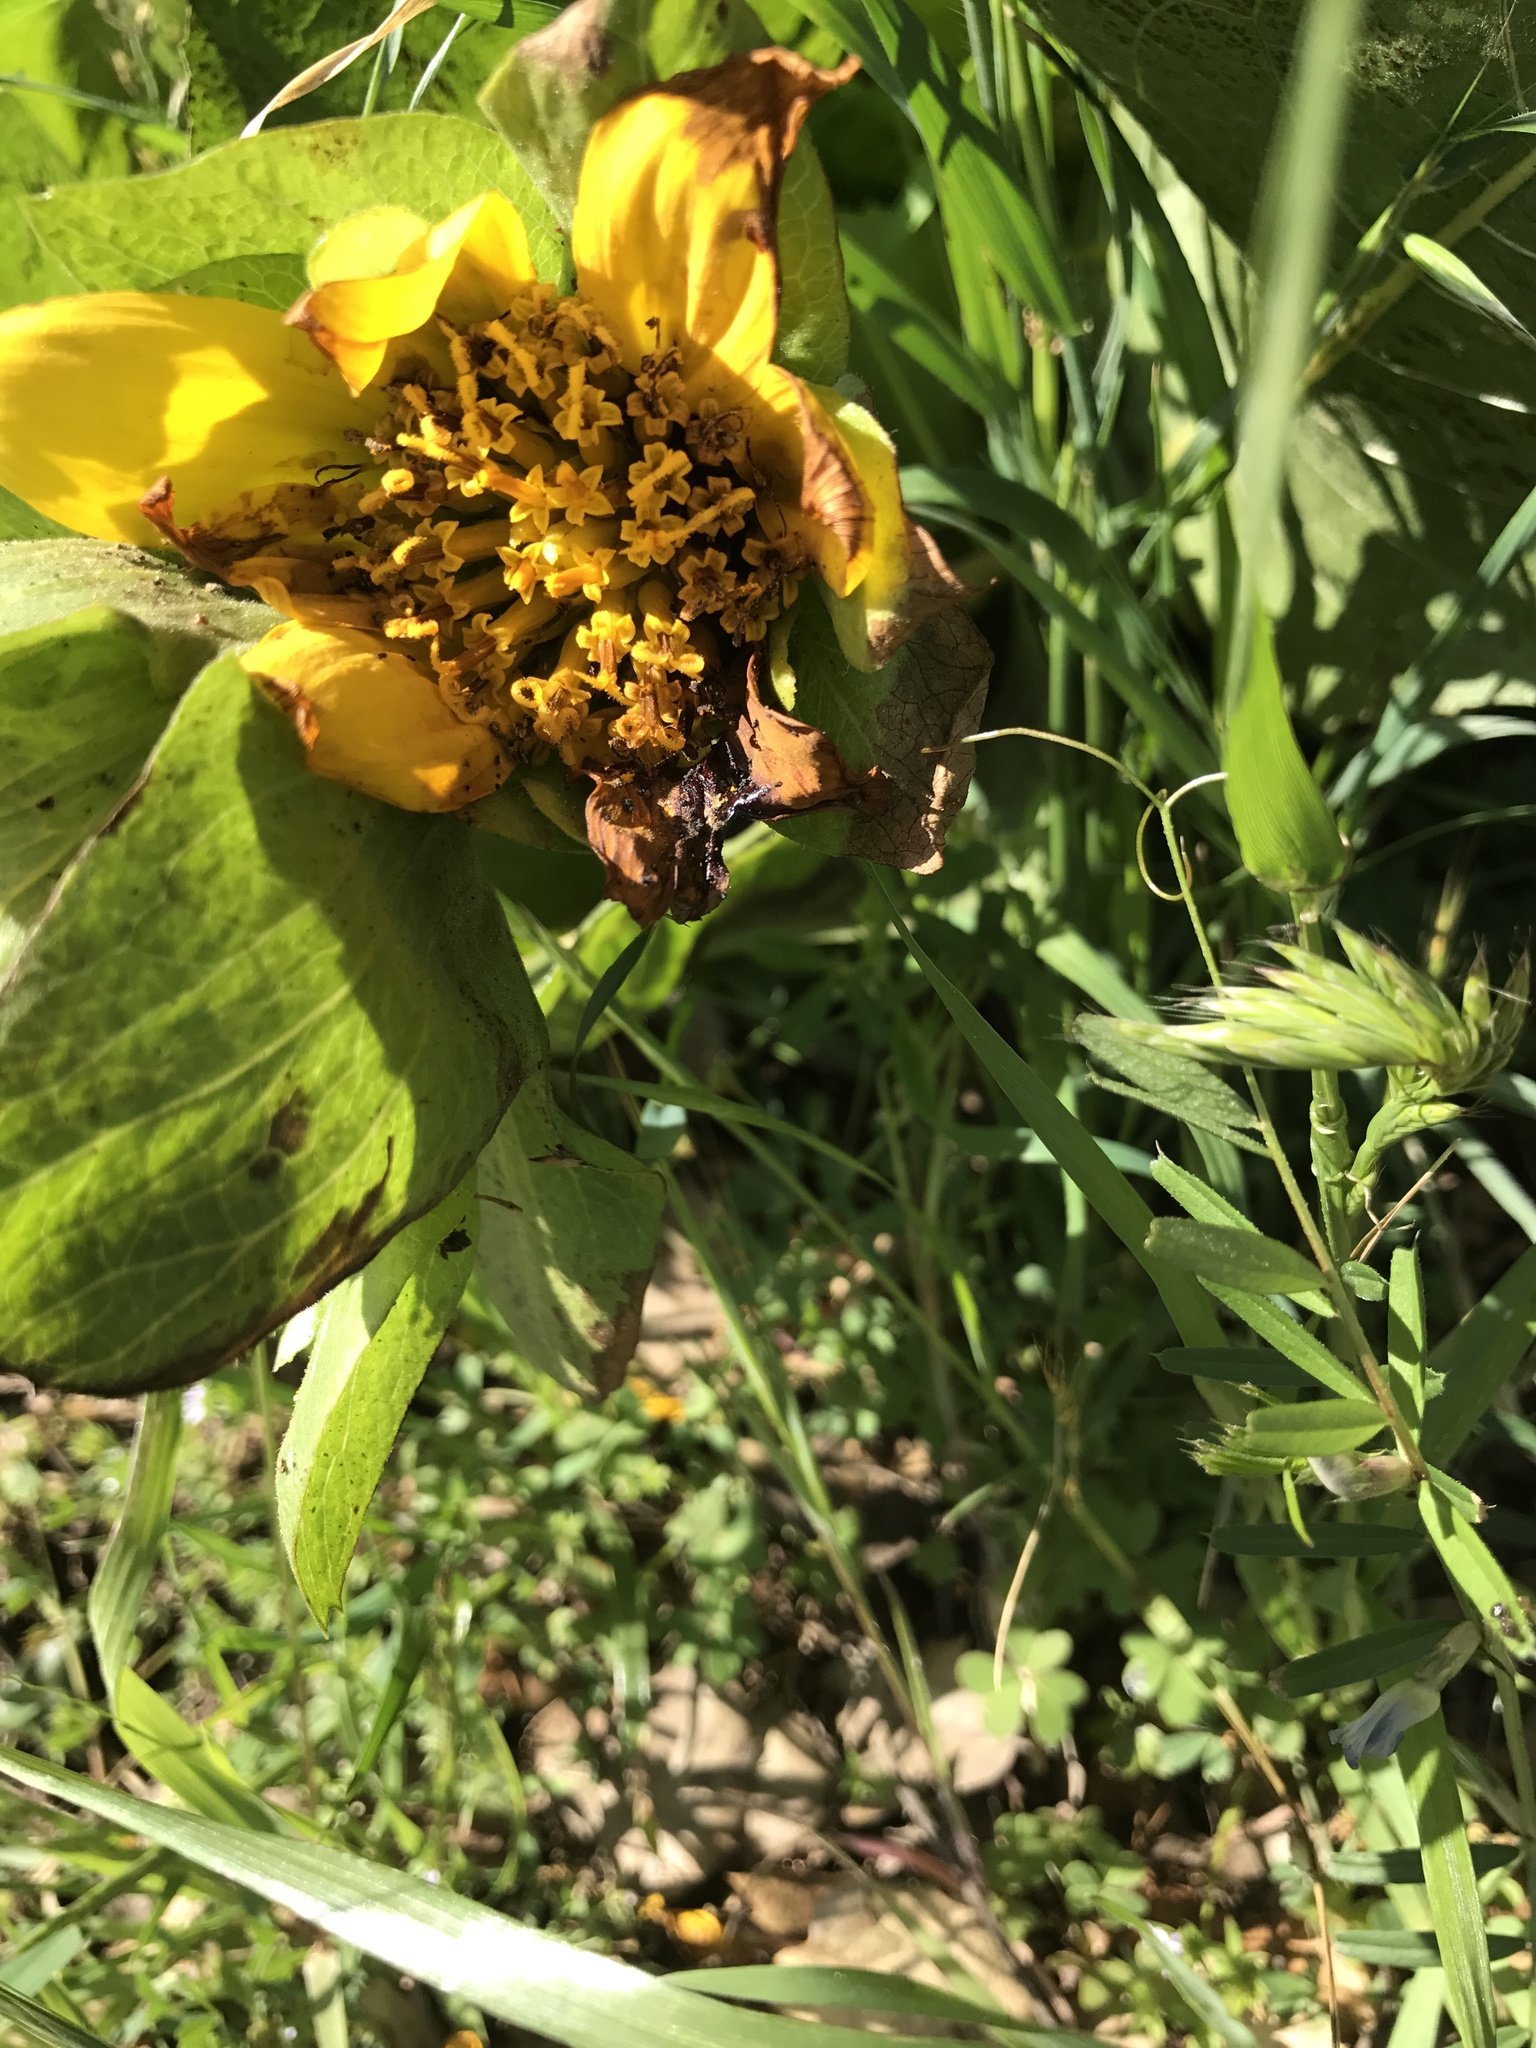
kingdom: Plantae
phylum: Tracheophyta
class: Magnoliopsida
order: Asterales
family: Asteraceae
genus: Wyethia
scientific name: Wyethia glabra
